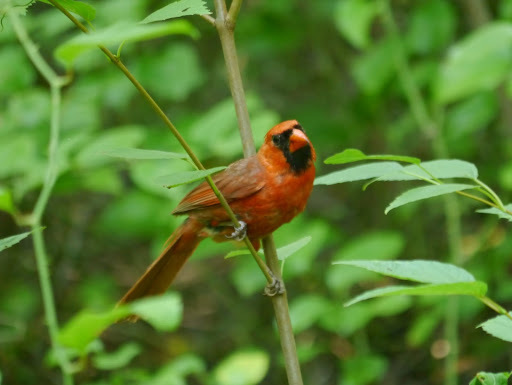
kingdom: Animalia
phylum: Chordata
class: Aves
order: Passeriformes
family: Cardinalidae
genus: Cardinalis
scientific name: Cardinalis cardinalis
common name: Northern cardinal
